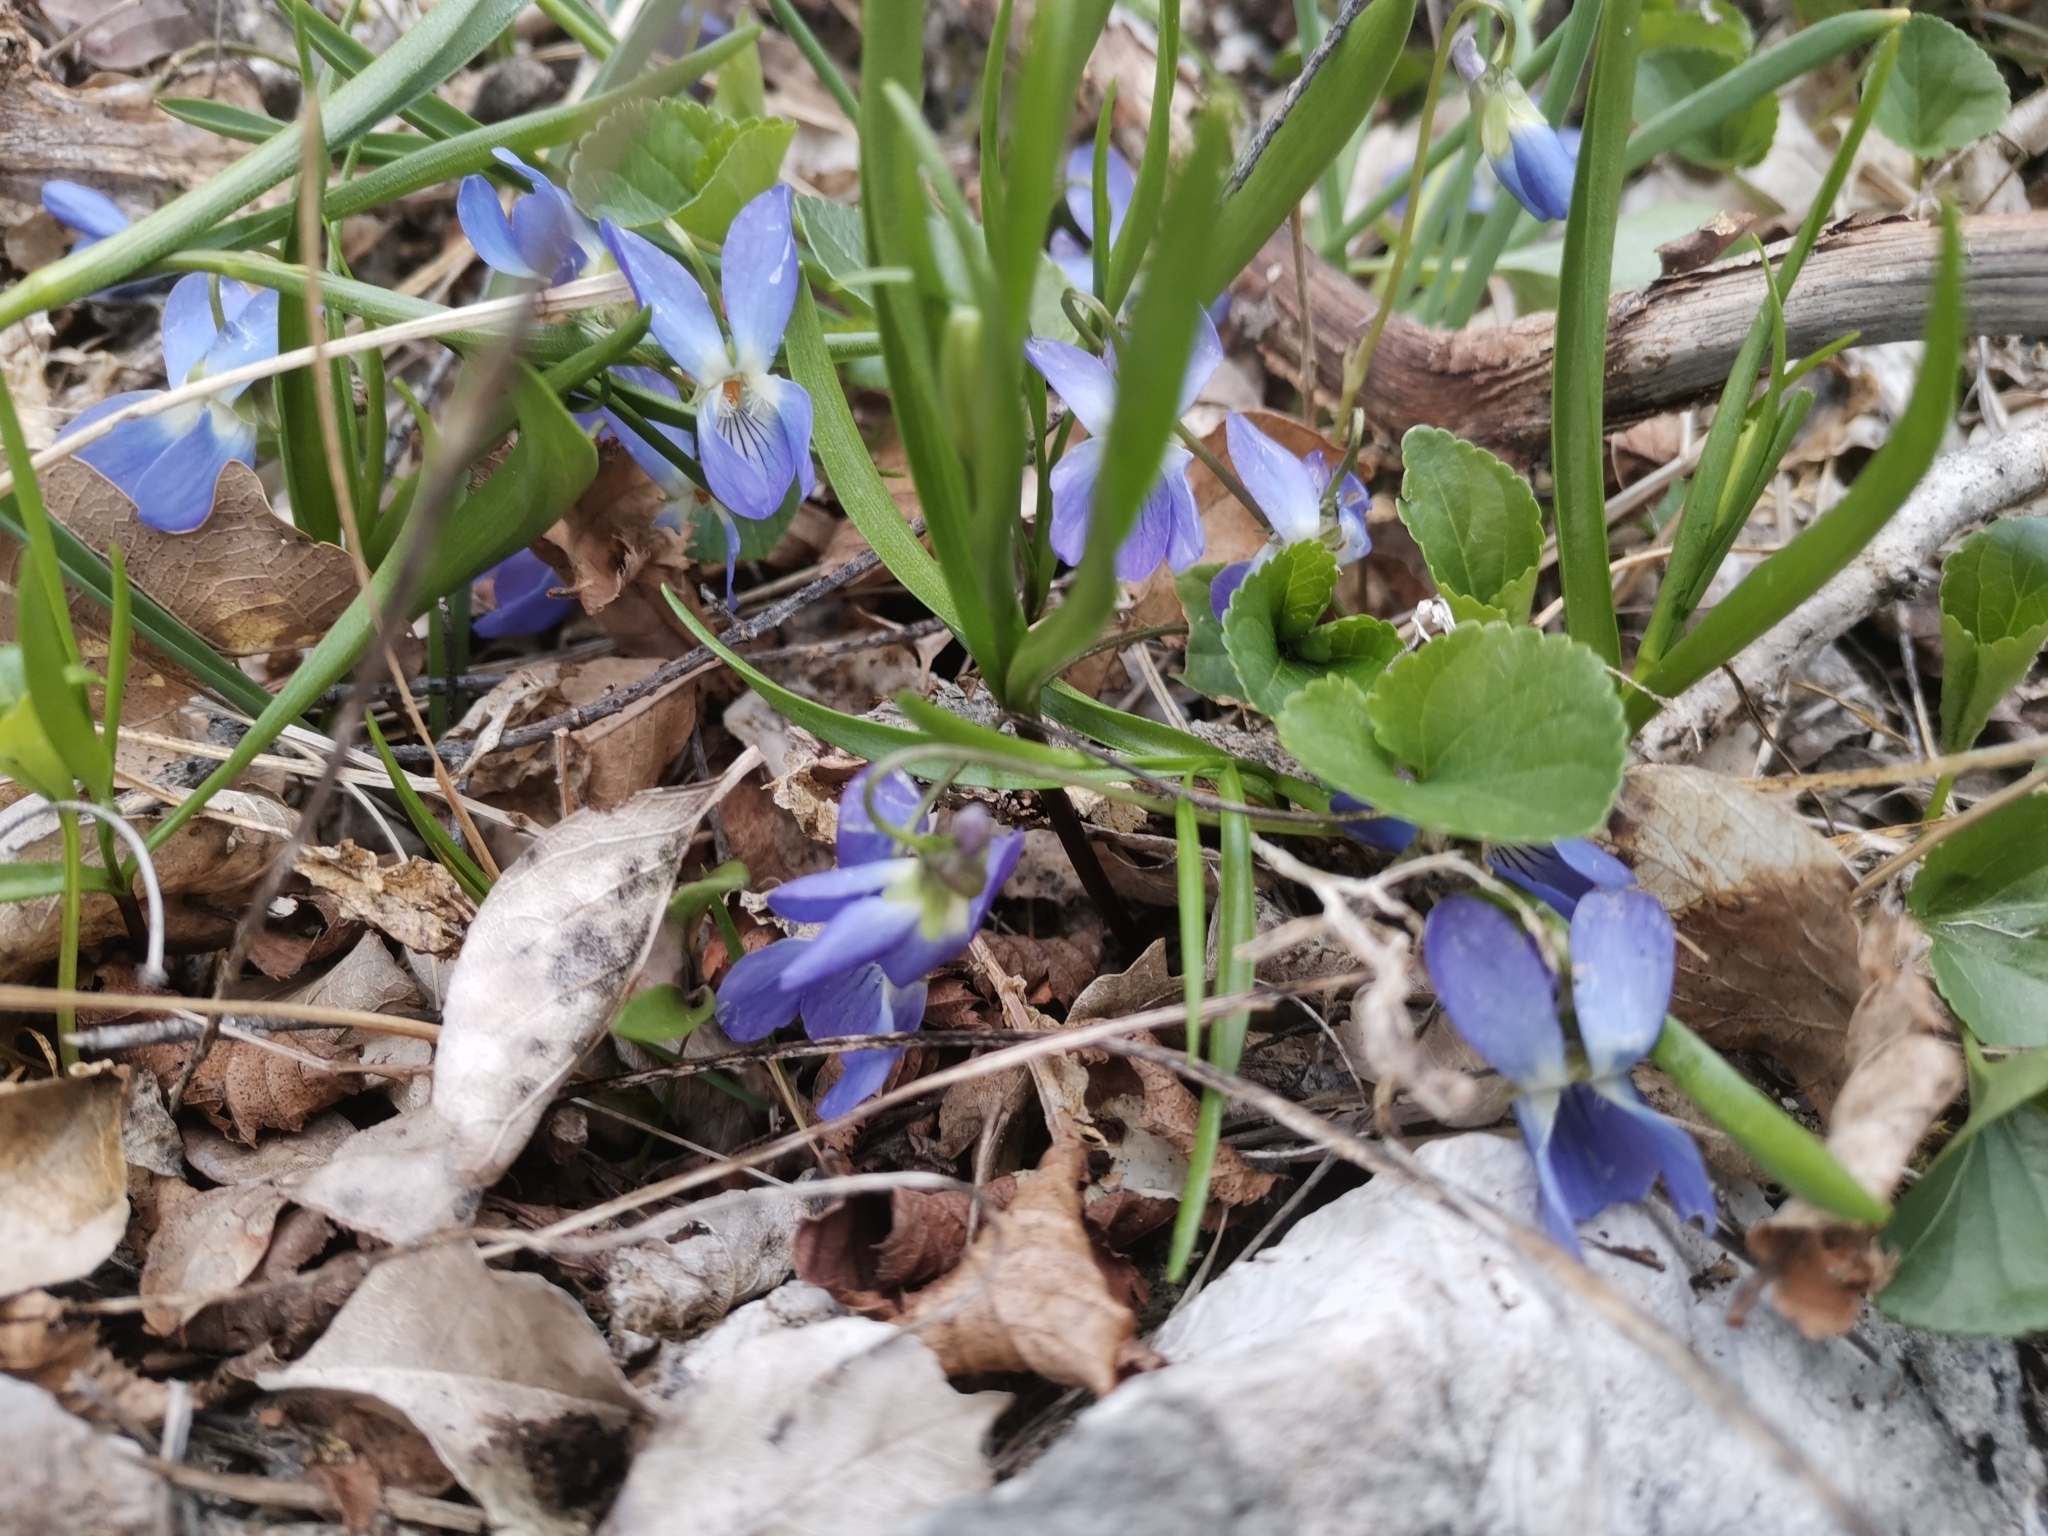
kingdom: Plantae
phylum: Tracheophyta
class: Magnoliopsida
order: Malpighiales
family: Violaceae
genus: Viola
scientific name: Viola suavis
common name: Russian violet
